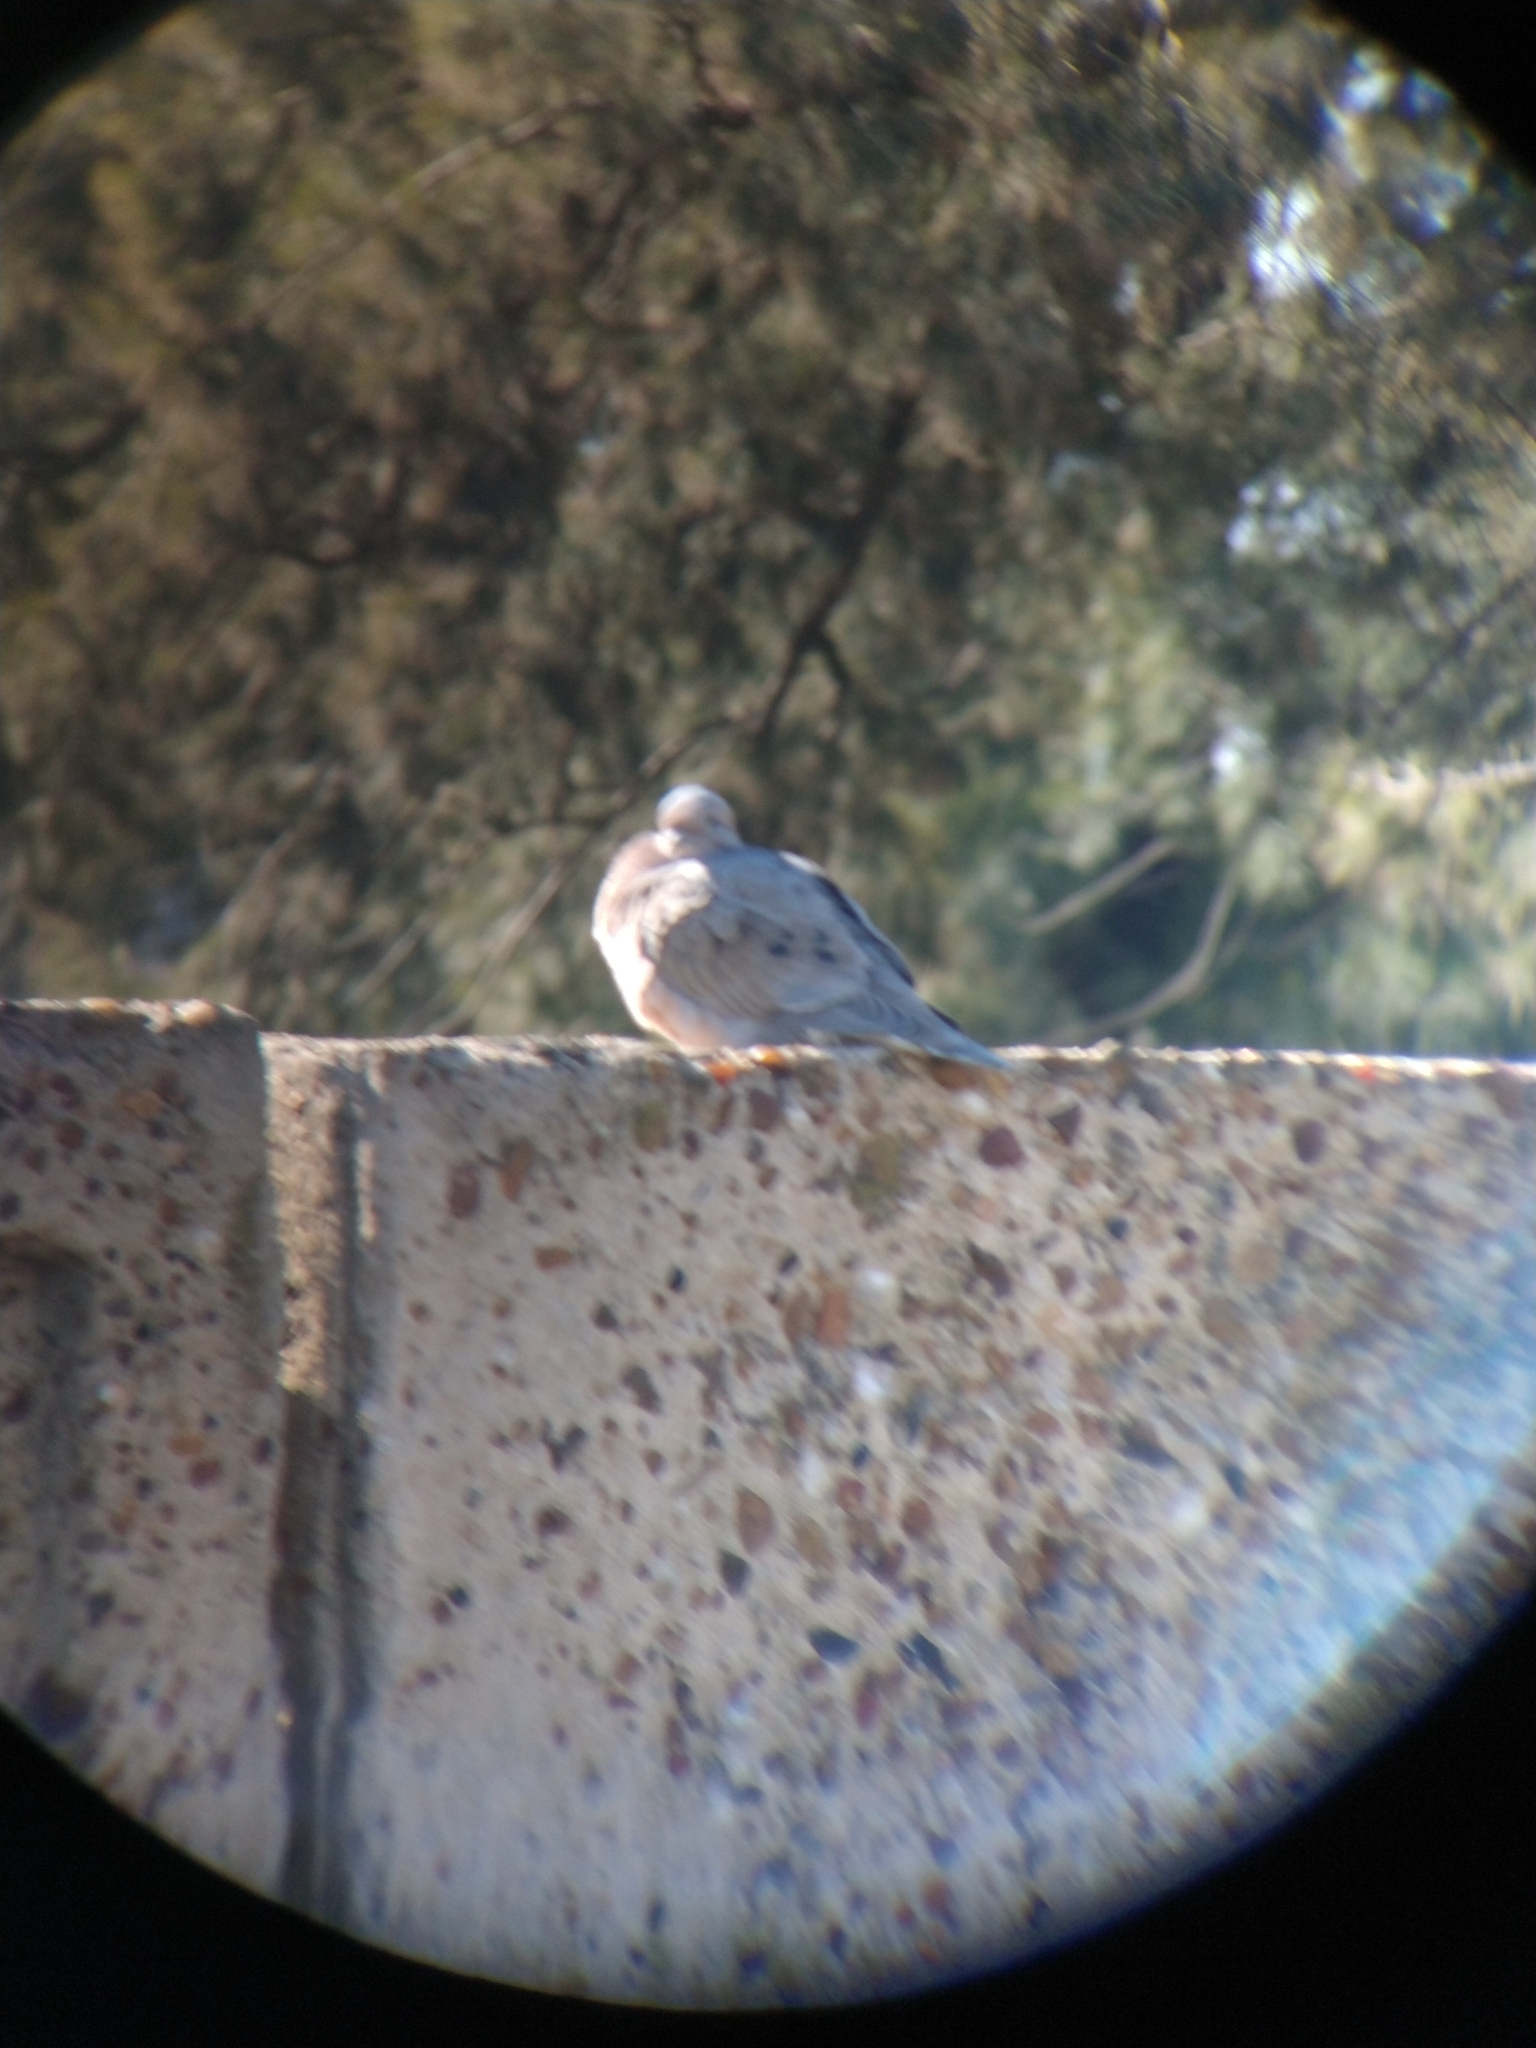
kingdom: Animalia
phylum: Chordata
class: Aves
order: Columbiformes
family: Columbidae
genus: Zenaida
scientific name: Zenaida auriculata
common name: Eared dove
